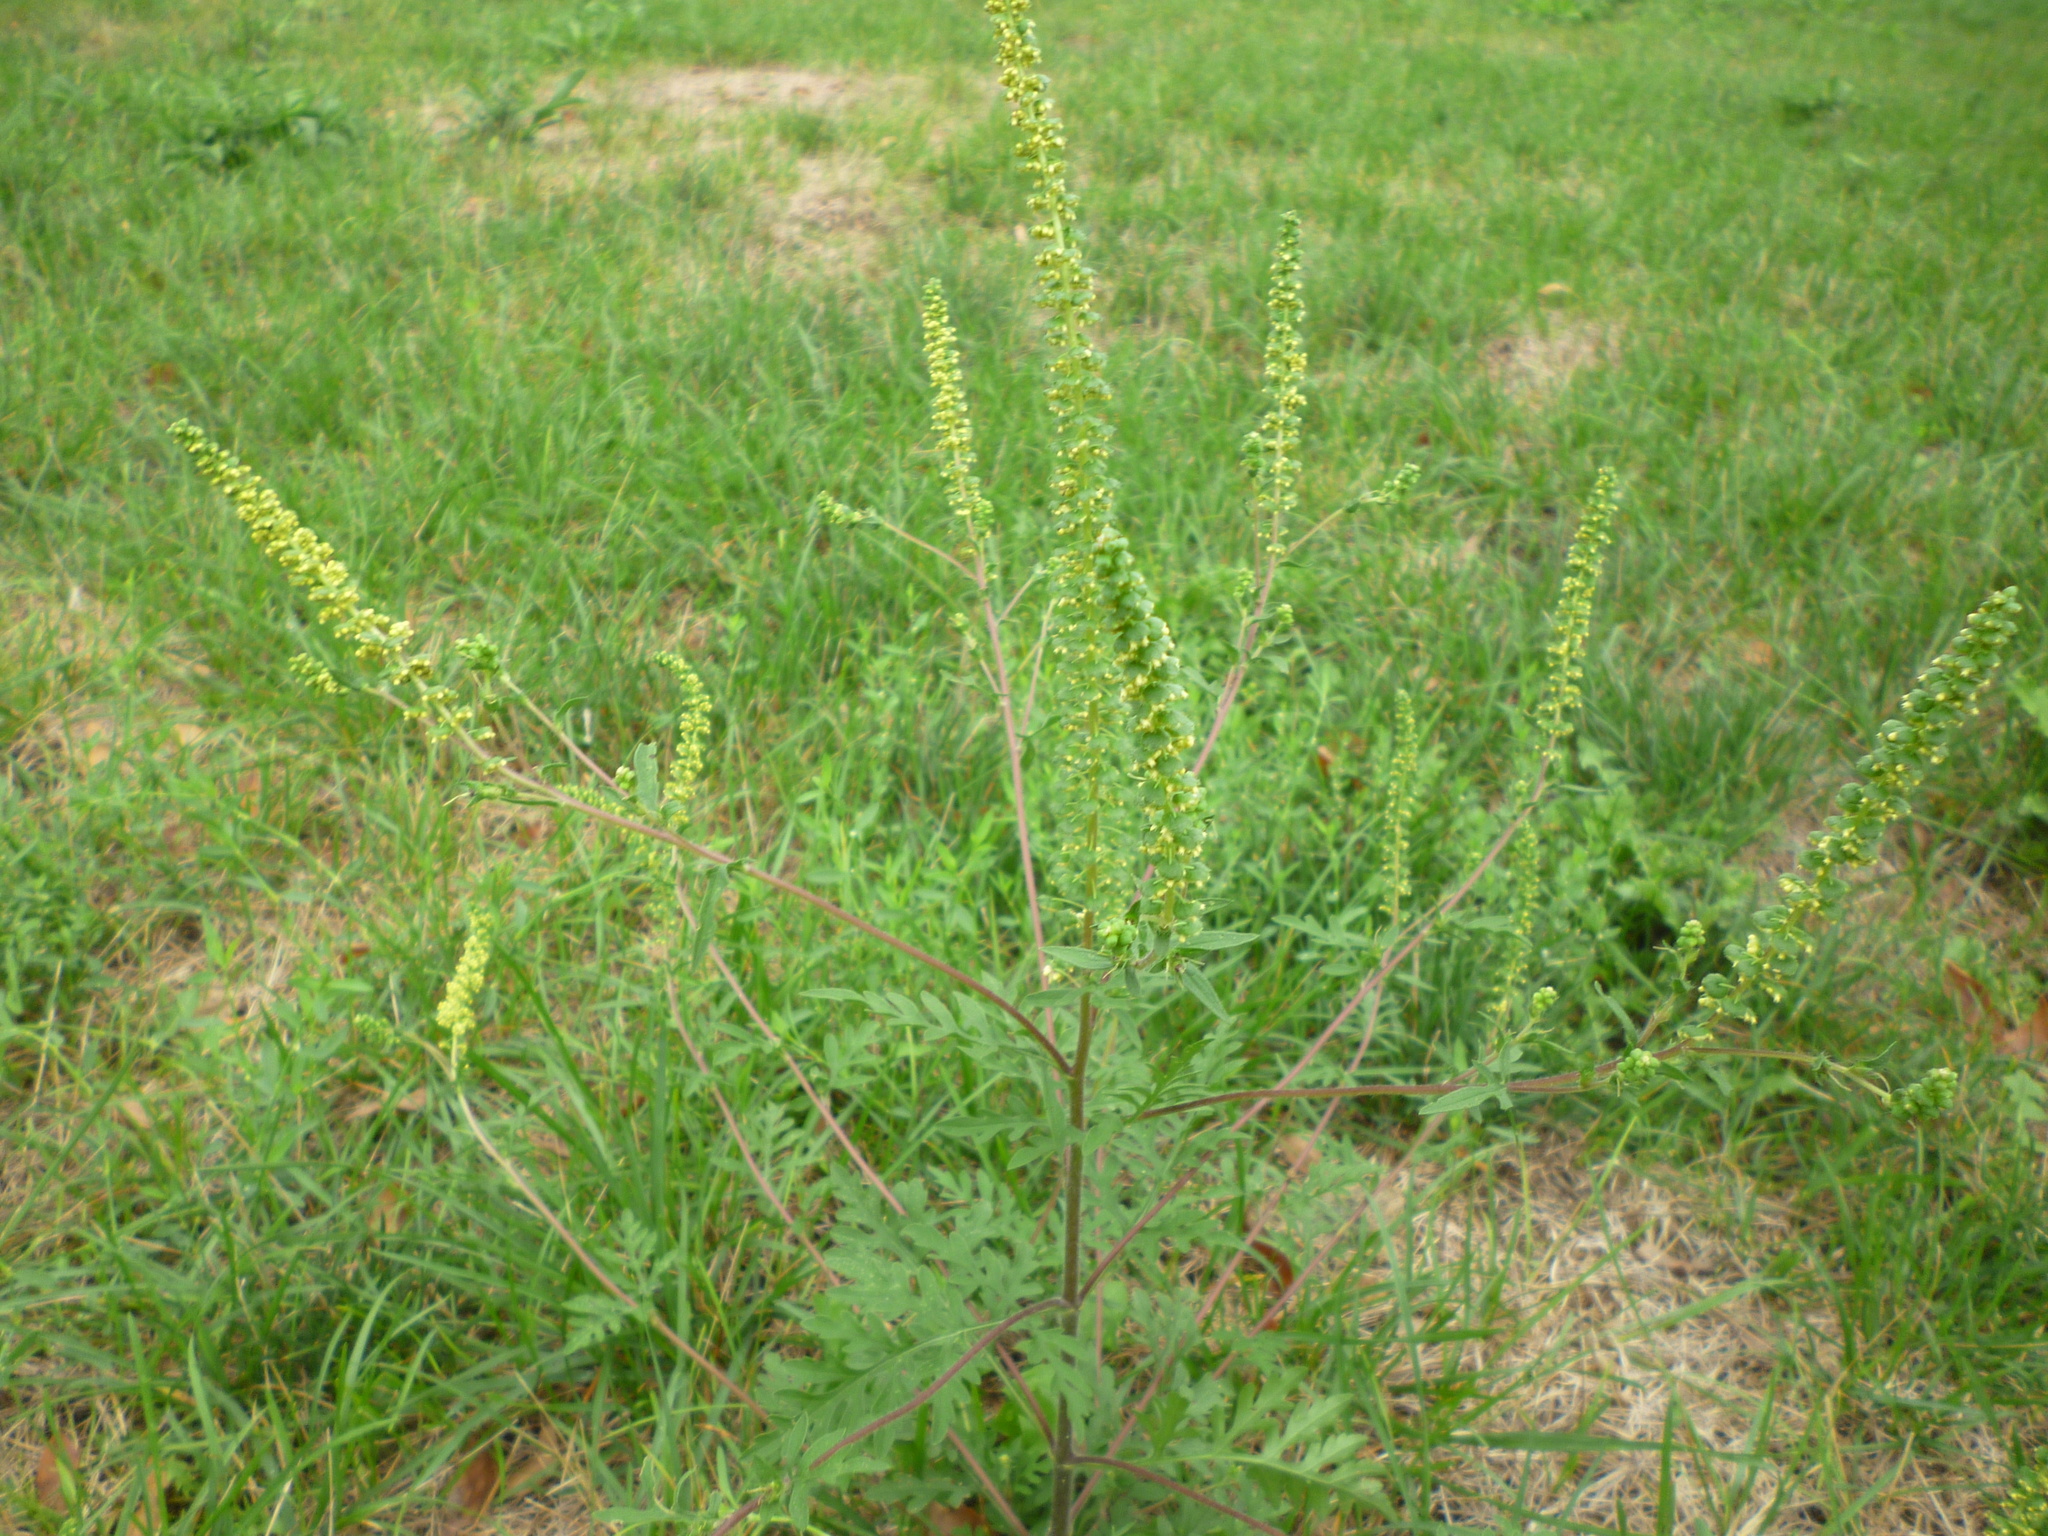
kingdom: Plantae
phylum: Tracheophyta
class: Magnoliopsida
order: Asterales
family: Asteraceae
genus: Ambrosia
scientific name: Ambrosia artemisiifolia
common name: Annual ragweed
